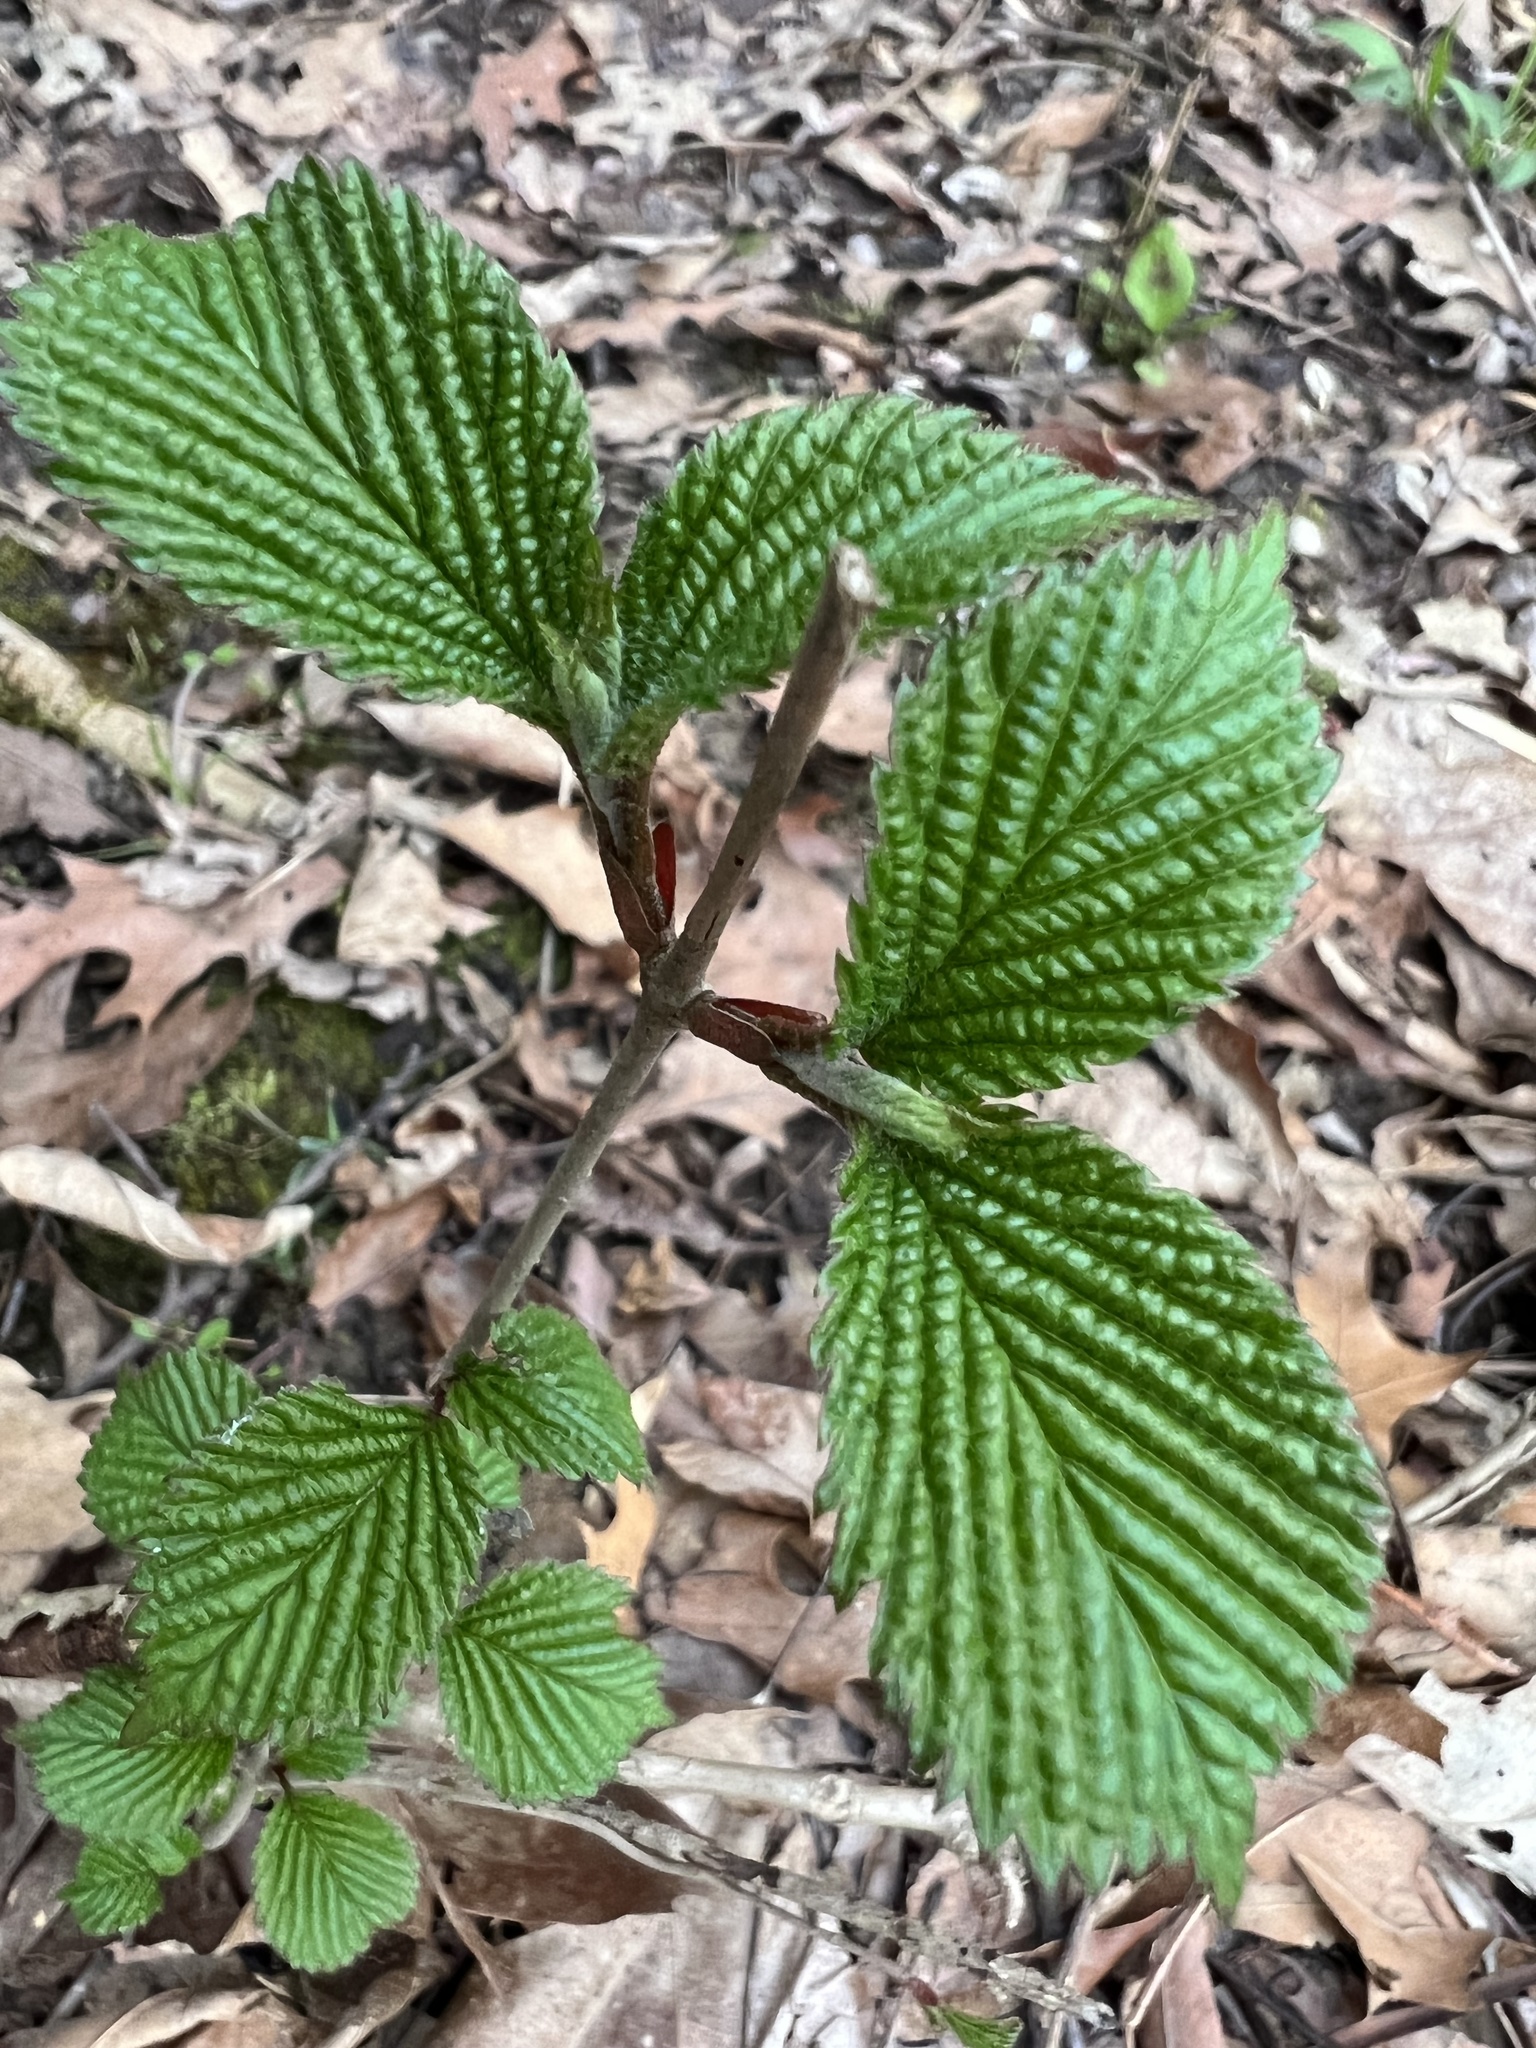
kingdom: Plantae
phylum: Tracheophyta
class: Magnoliopsida
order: Dipsacales
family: Viburnaceae
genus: Viburnum
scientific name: Viburnum plicatum
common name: Japanese snowball
